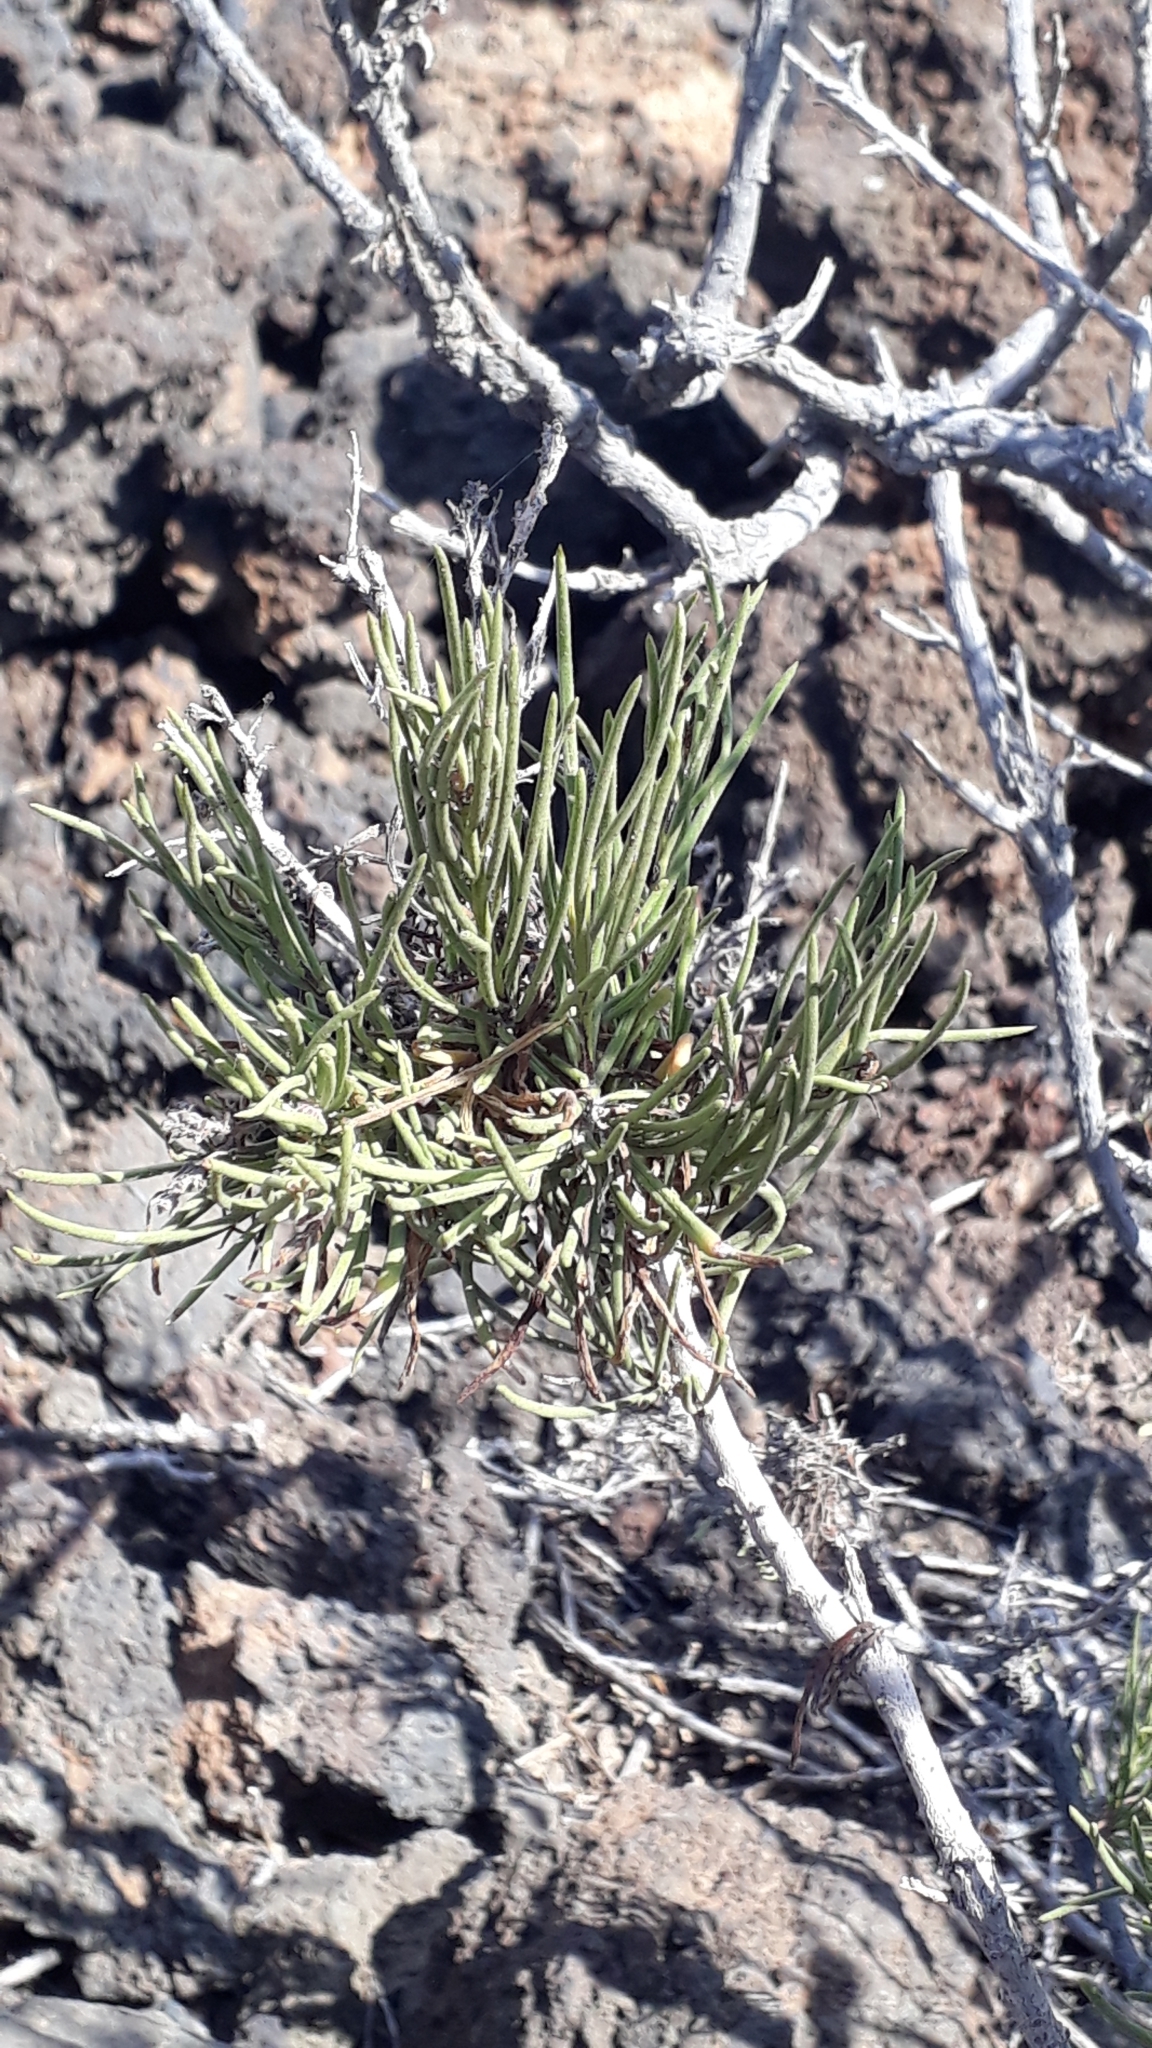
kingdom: Plantae
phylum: Tracheophyta
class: Magnoliopsida
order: Lamiales
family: Plantaginaceae
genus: Campylanthus
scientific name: Campylanthus salsoloides
